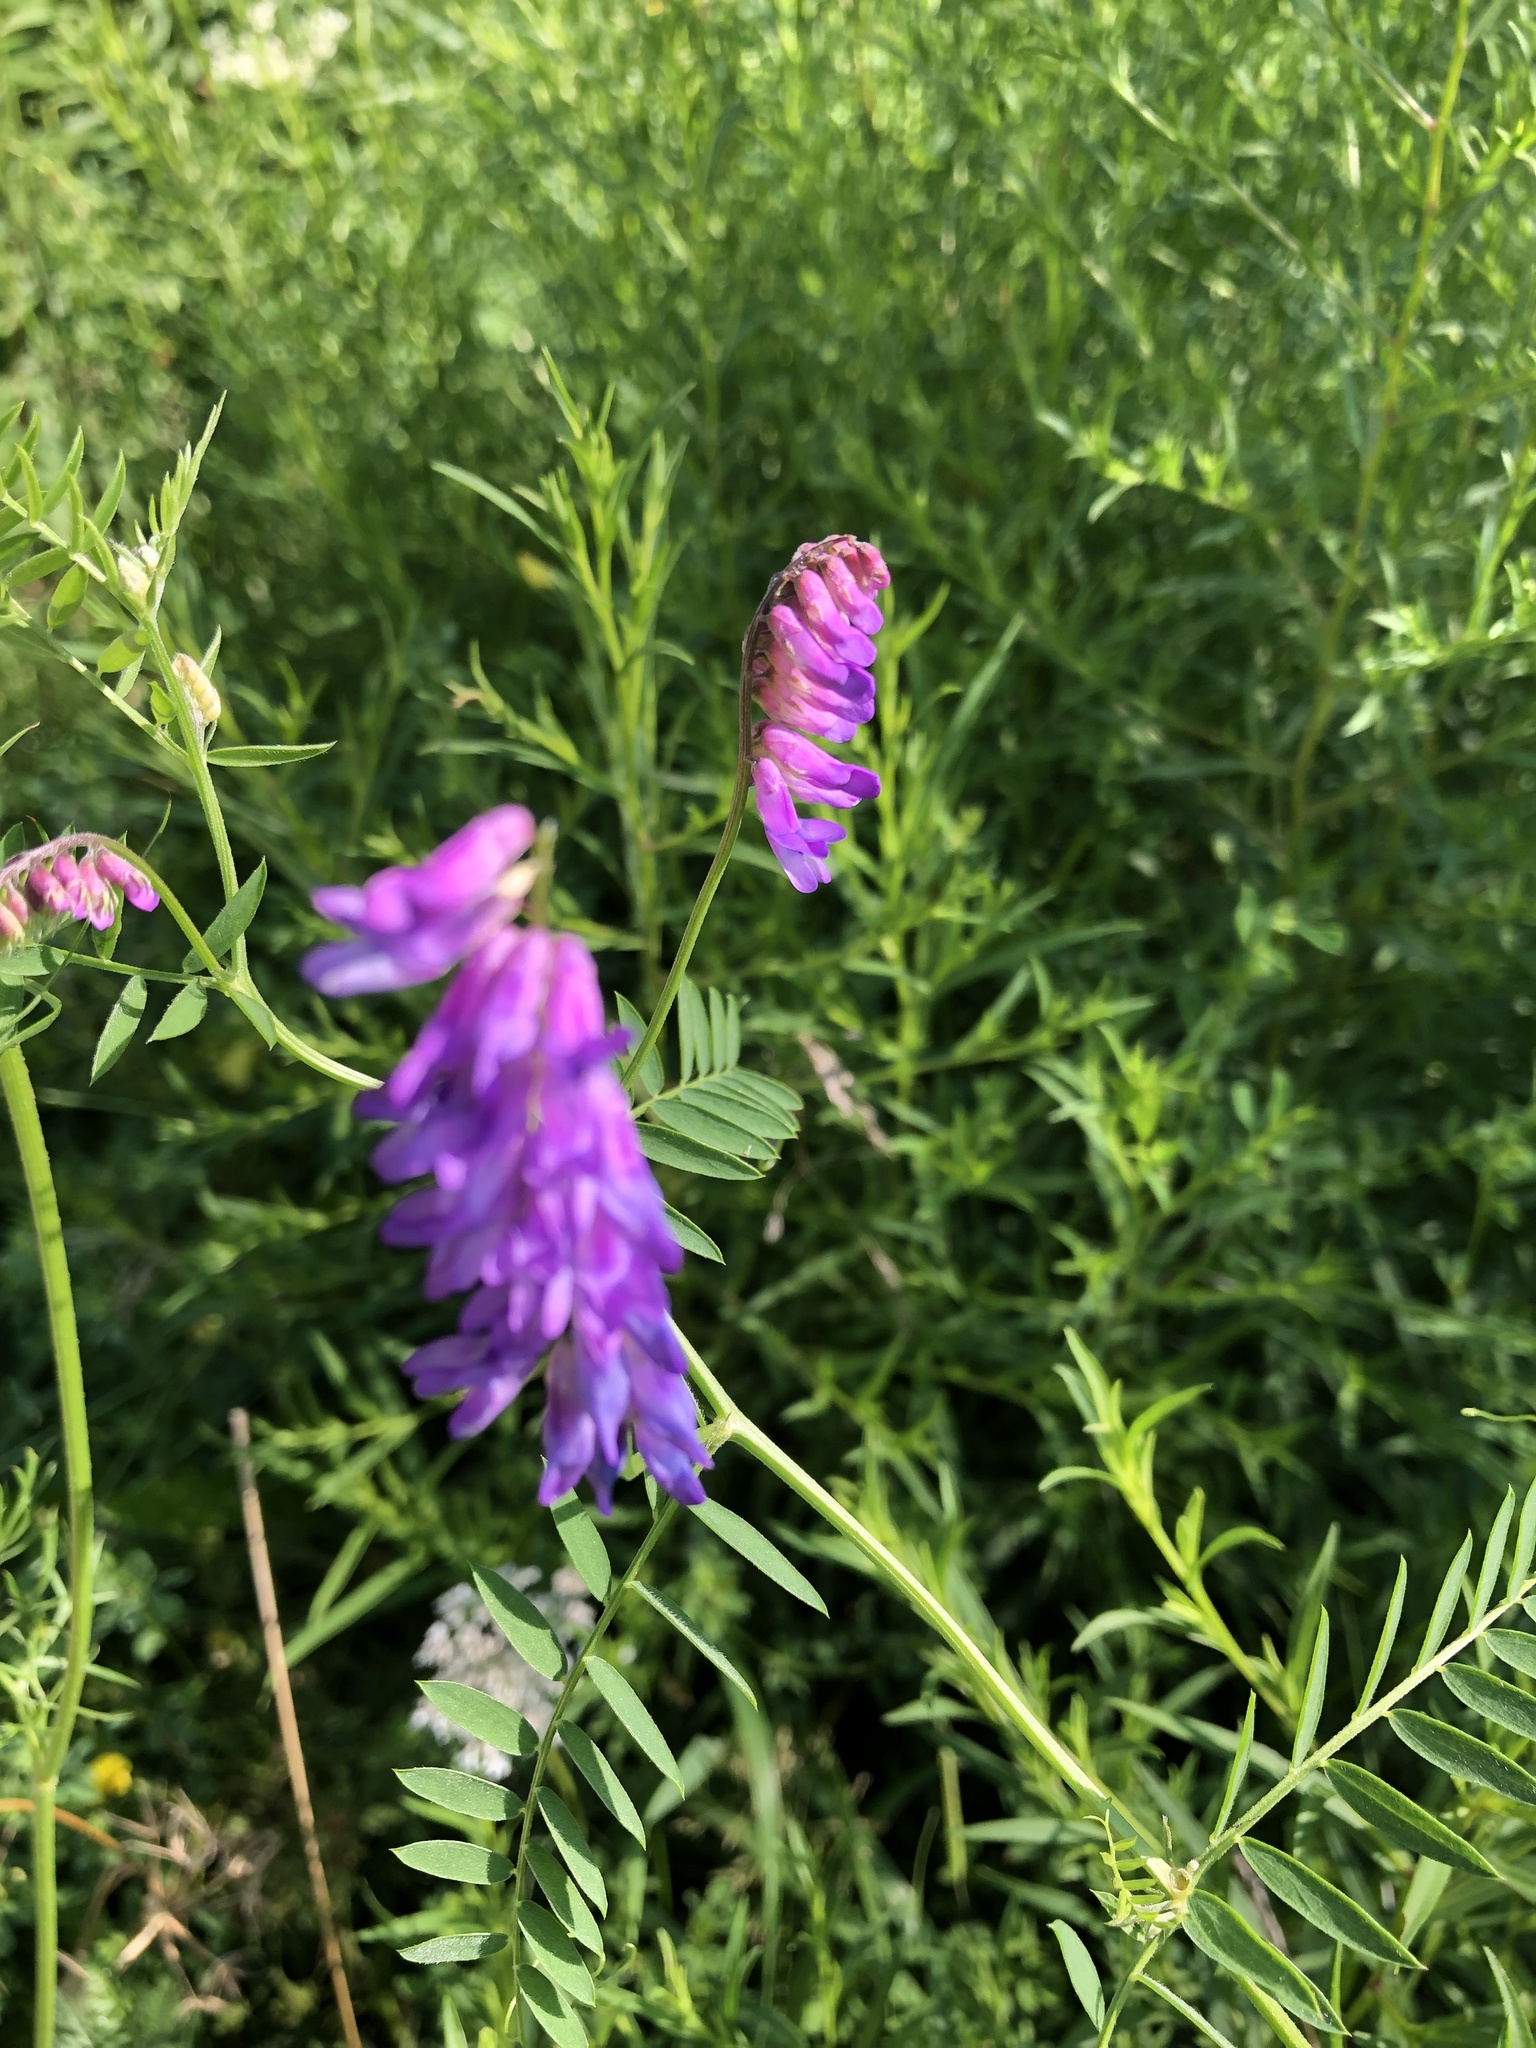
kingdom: Plantae
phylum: Tracheophyta
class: Magnoliopsida
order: Fabales
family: Fabaceae
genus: Vicia
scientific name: Vicia cracca
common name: Bird vetch
